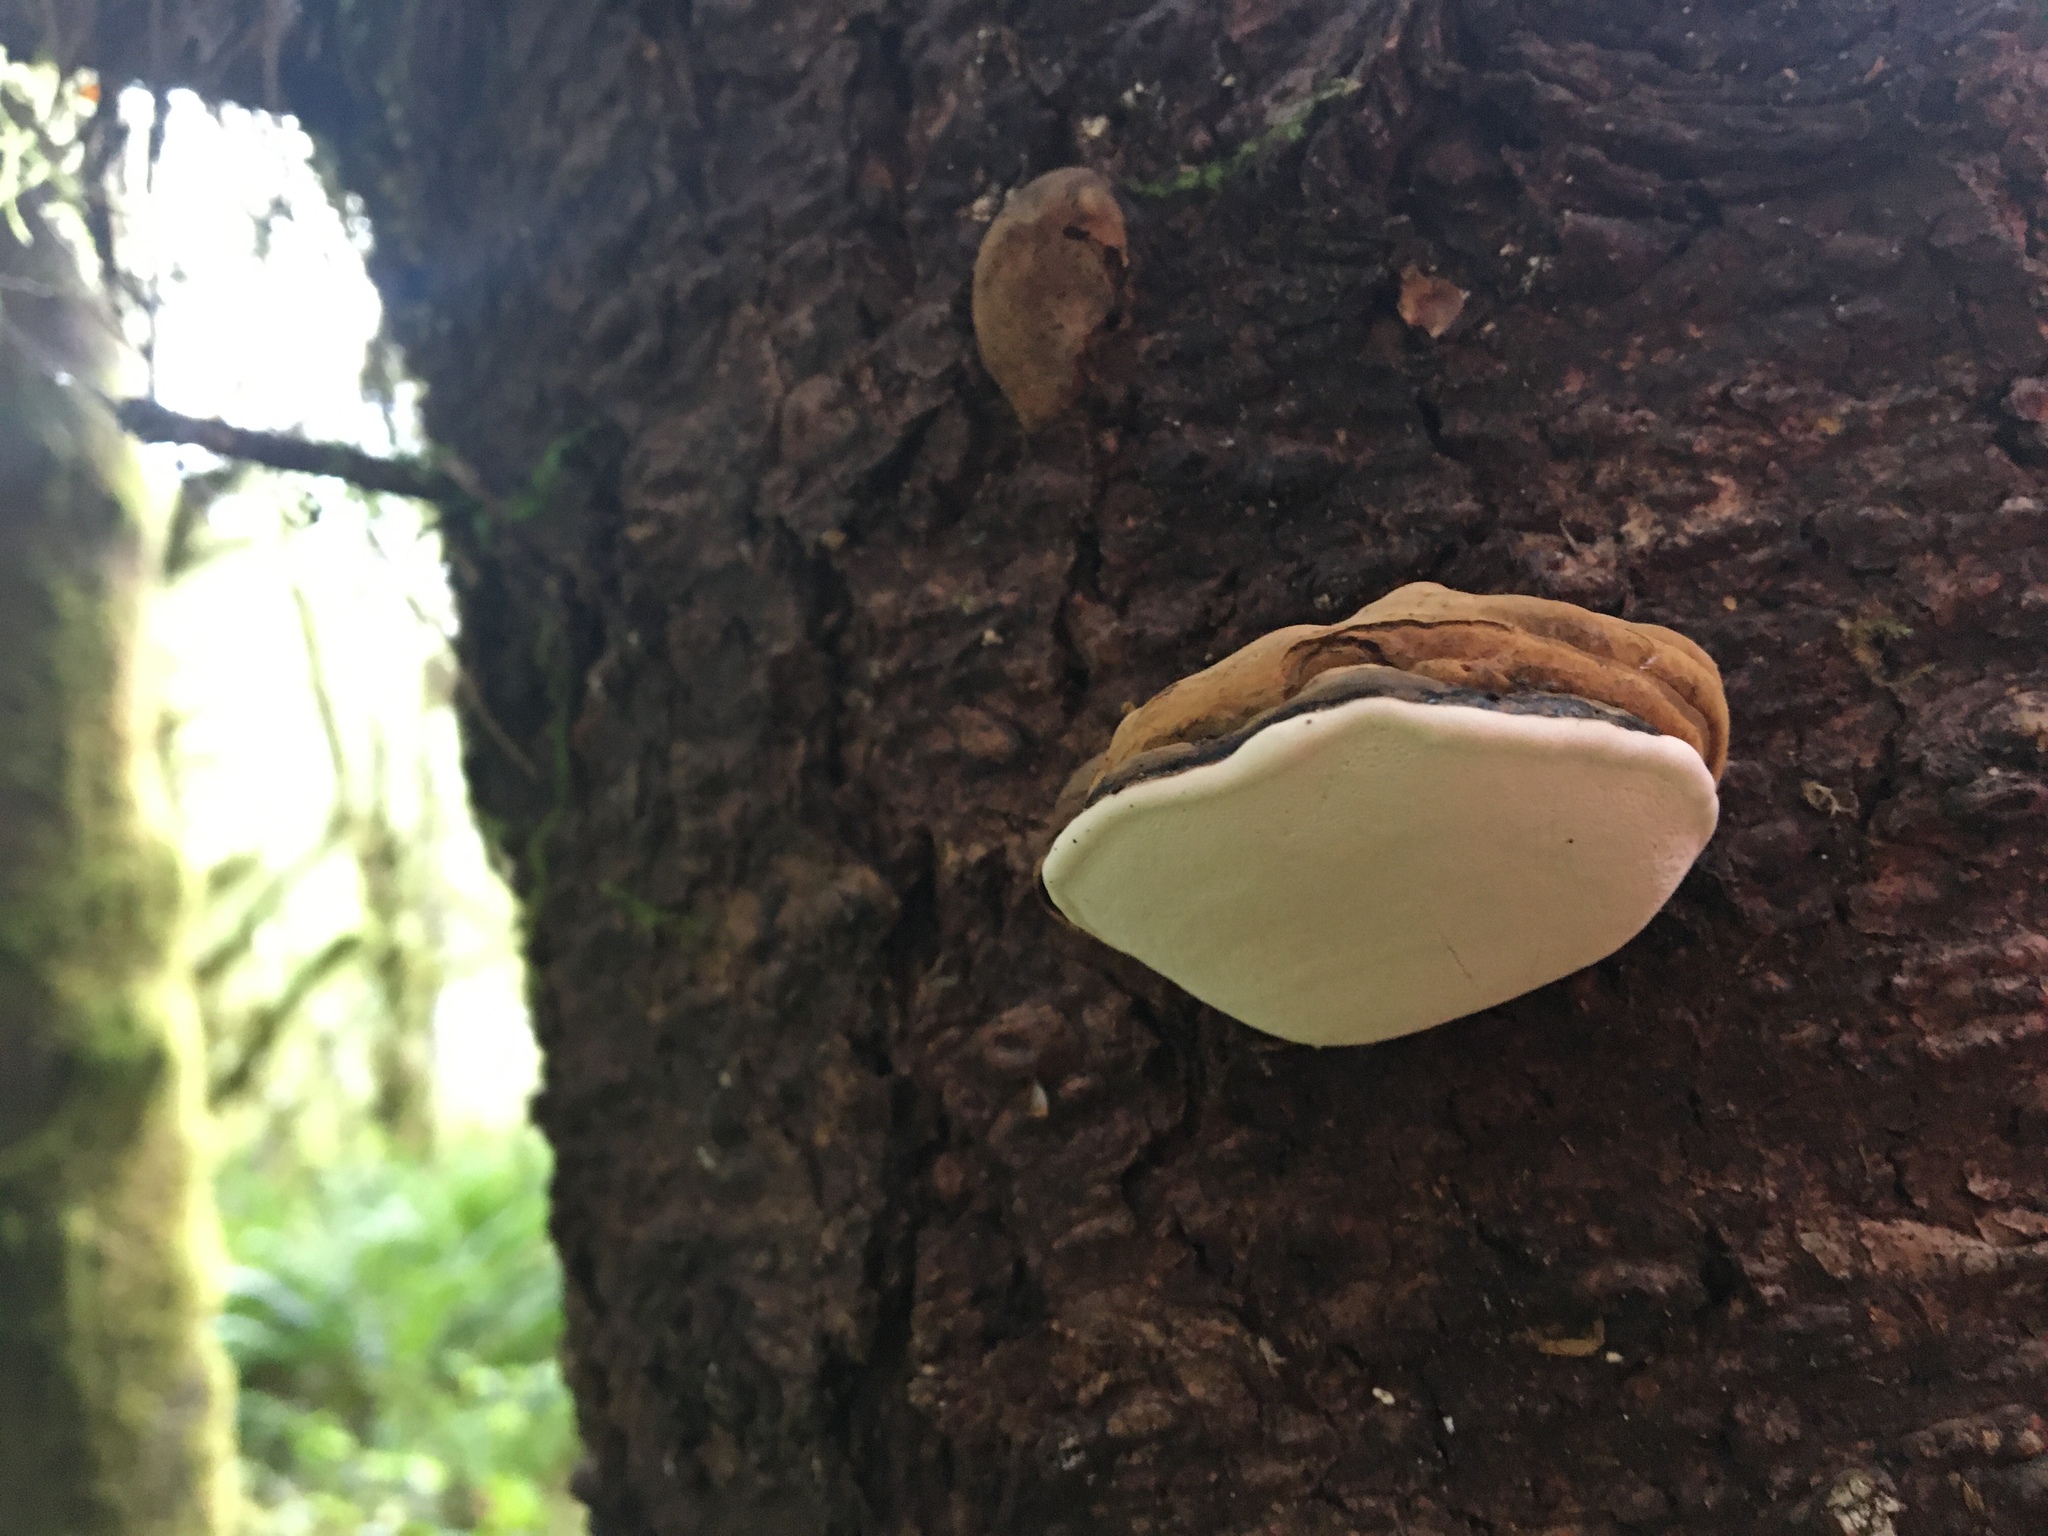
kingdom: Fungi
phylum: Basidiomycota
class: Agaricomycetes
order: Polyporales
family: Polyporaceae
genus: Ganoderma
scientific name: Ganoderma applanatum
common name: Artist's bracket
